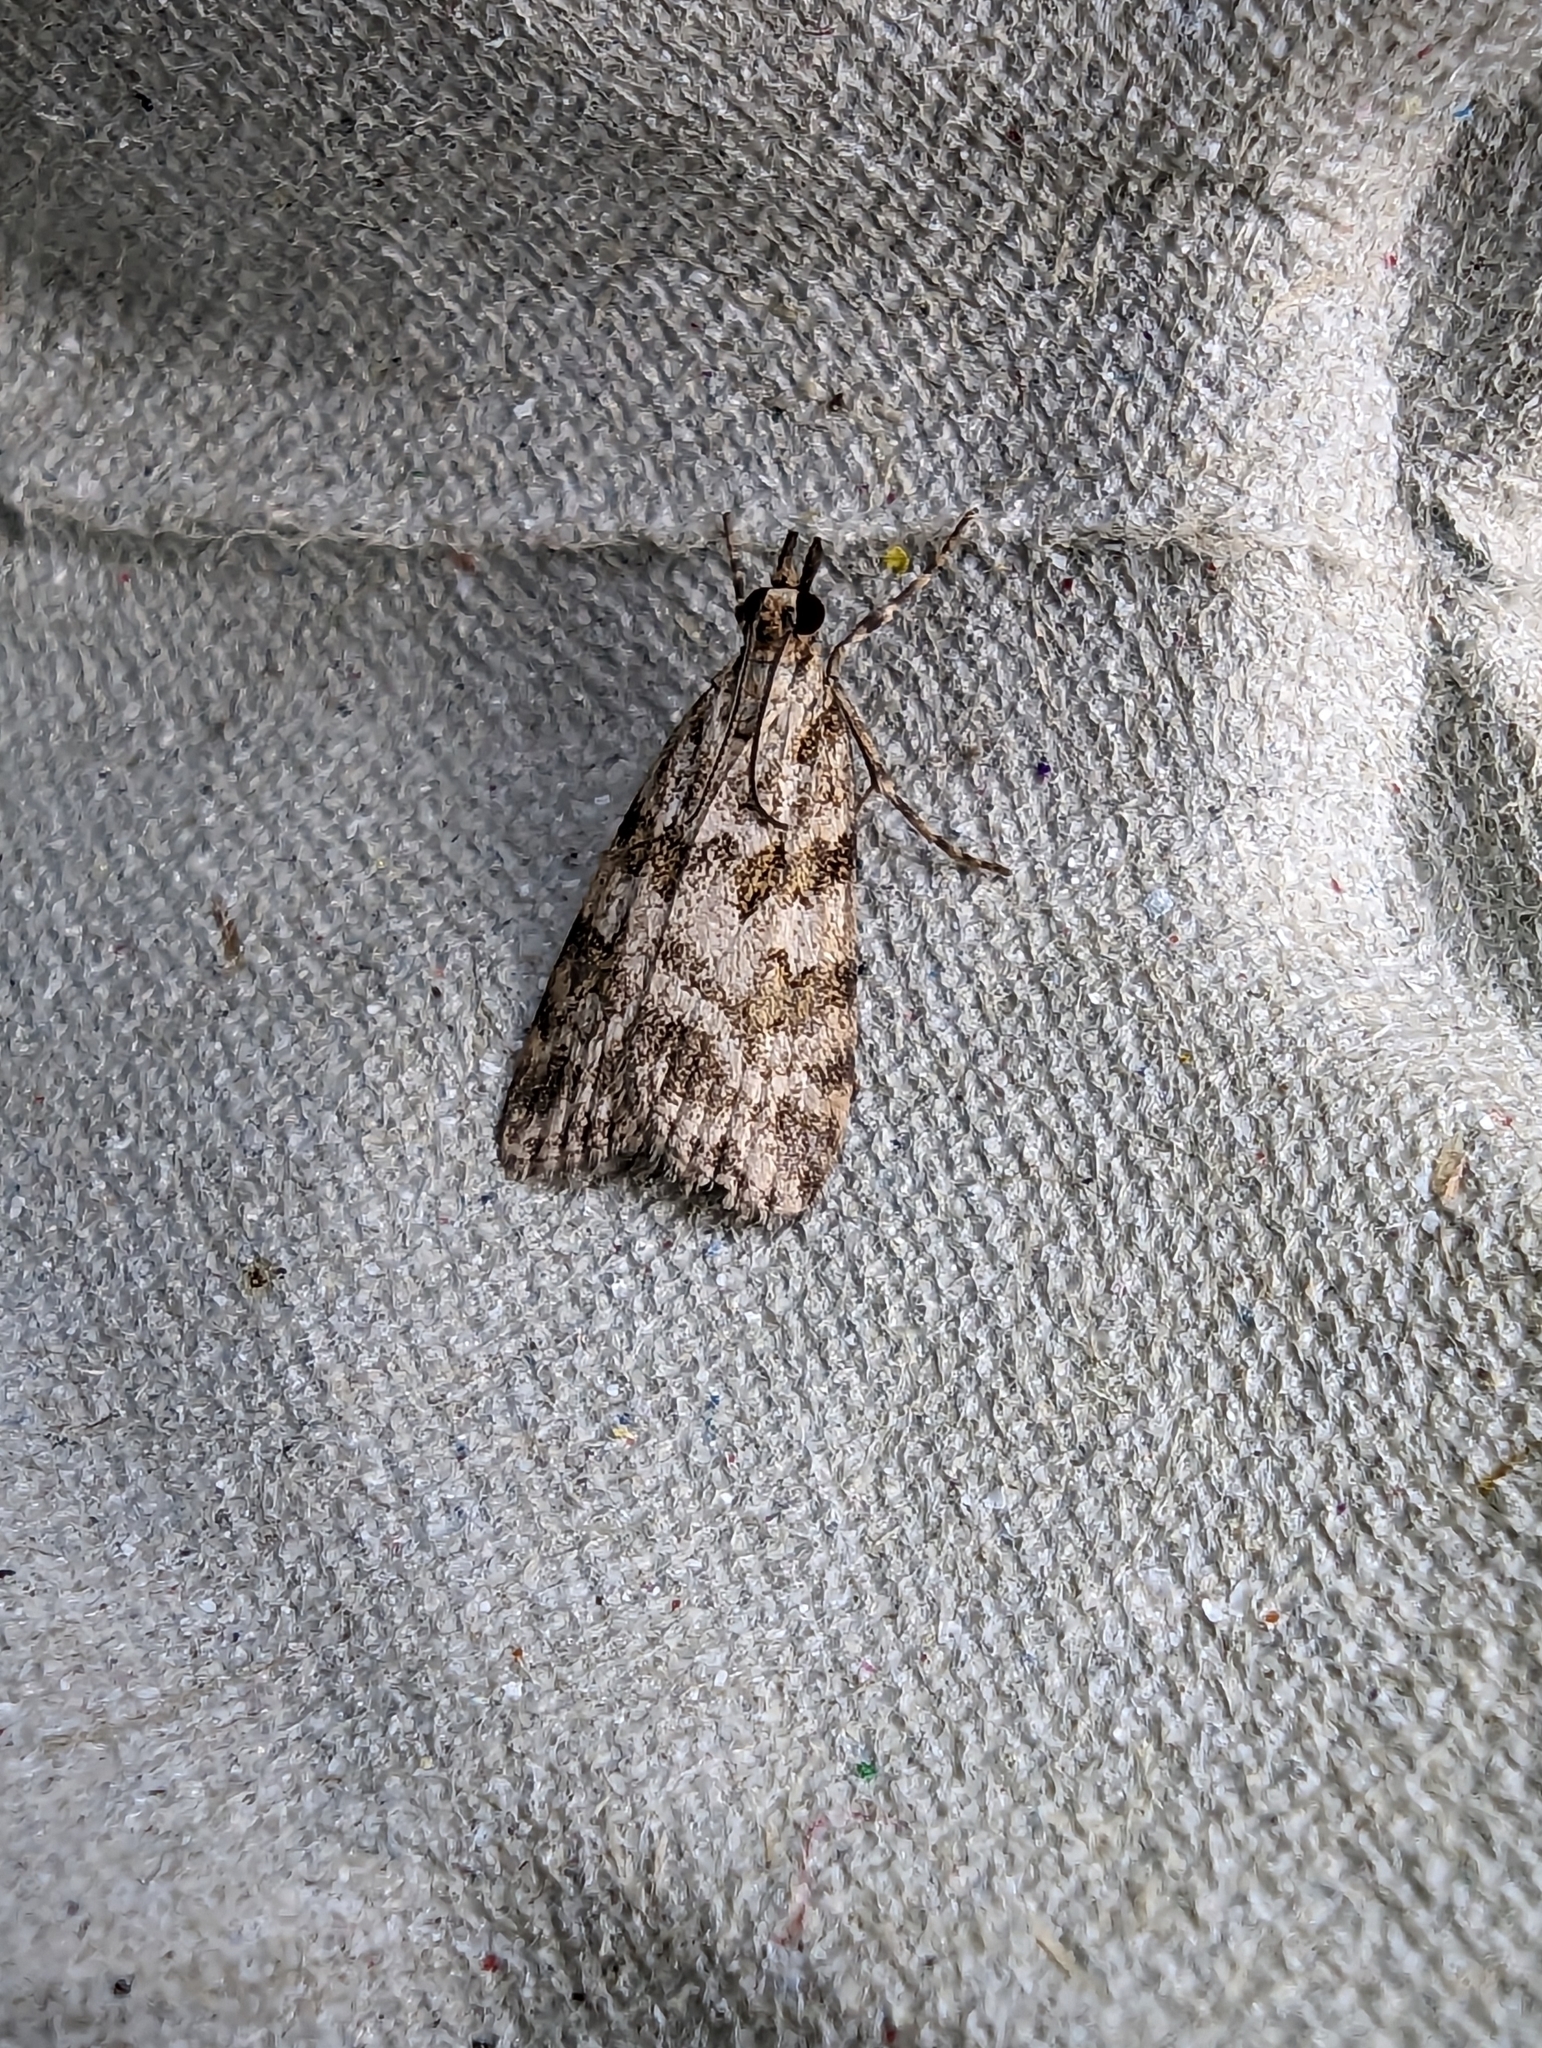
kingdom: Animalia
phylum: Arthropoda
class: Insecta
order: Lepidoptera
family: Crambidae
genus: Scoparia
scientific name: Scoparia pyralella
